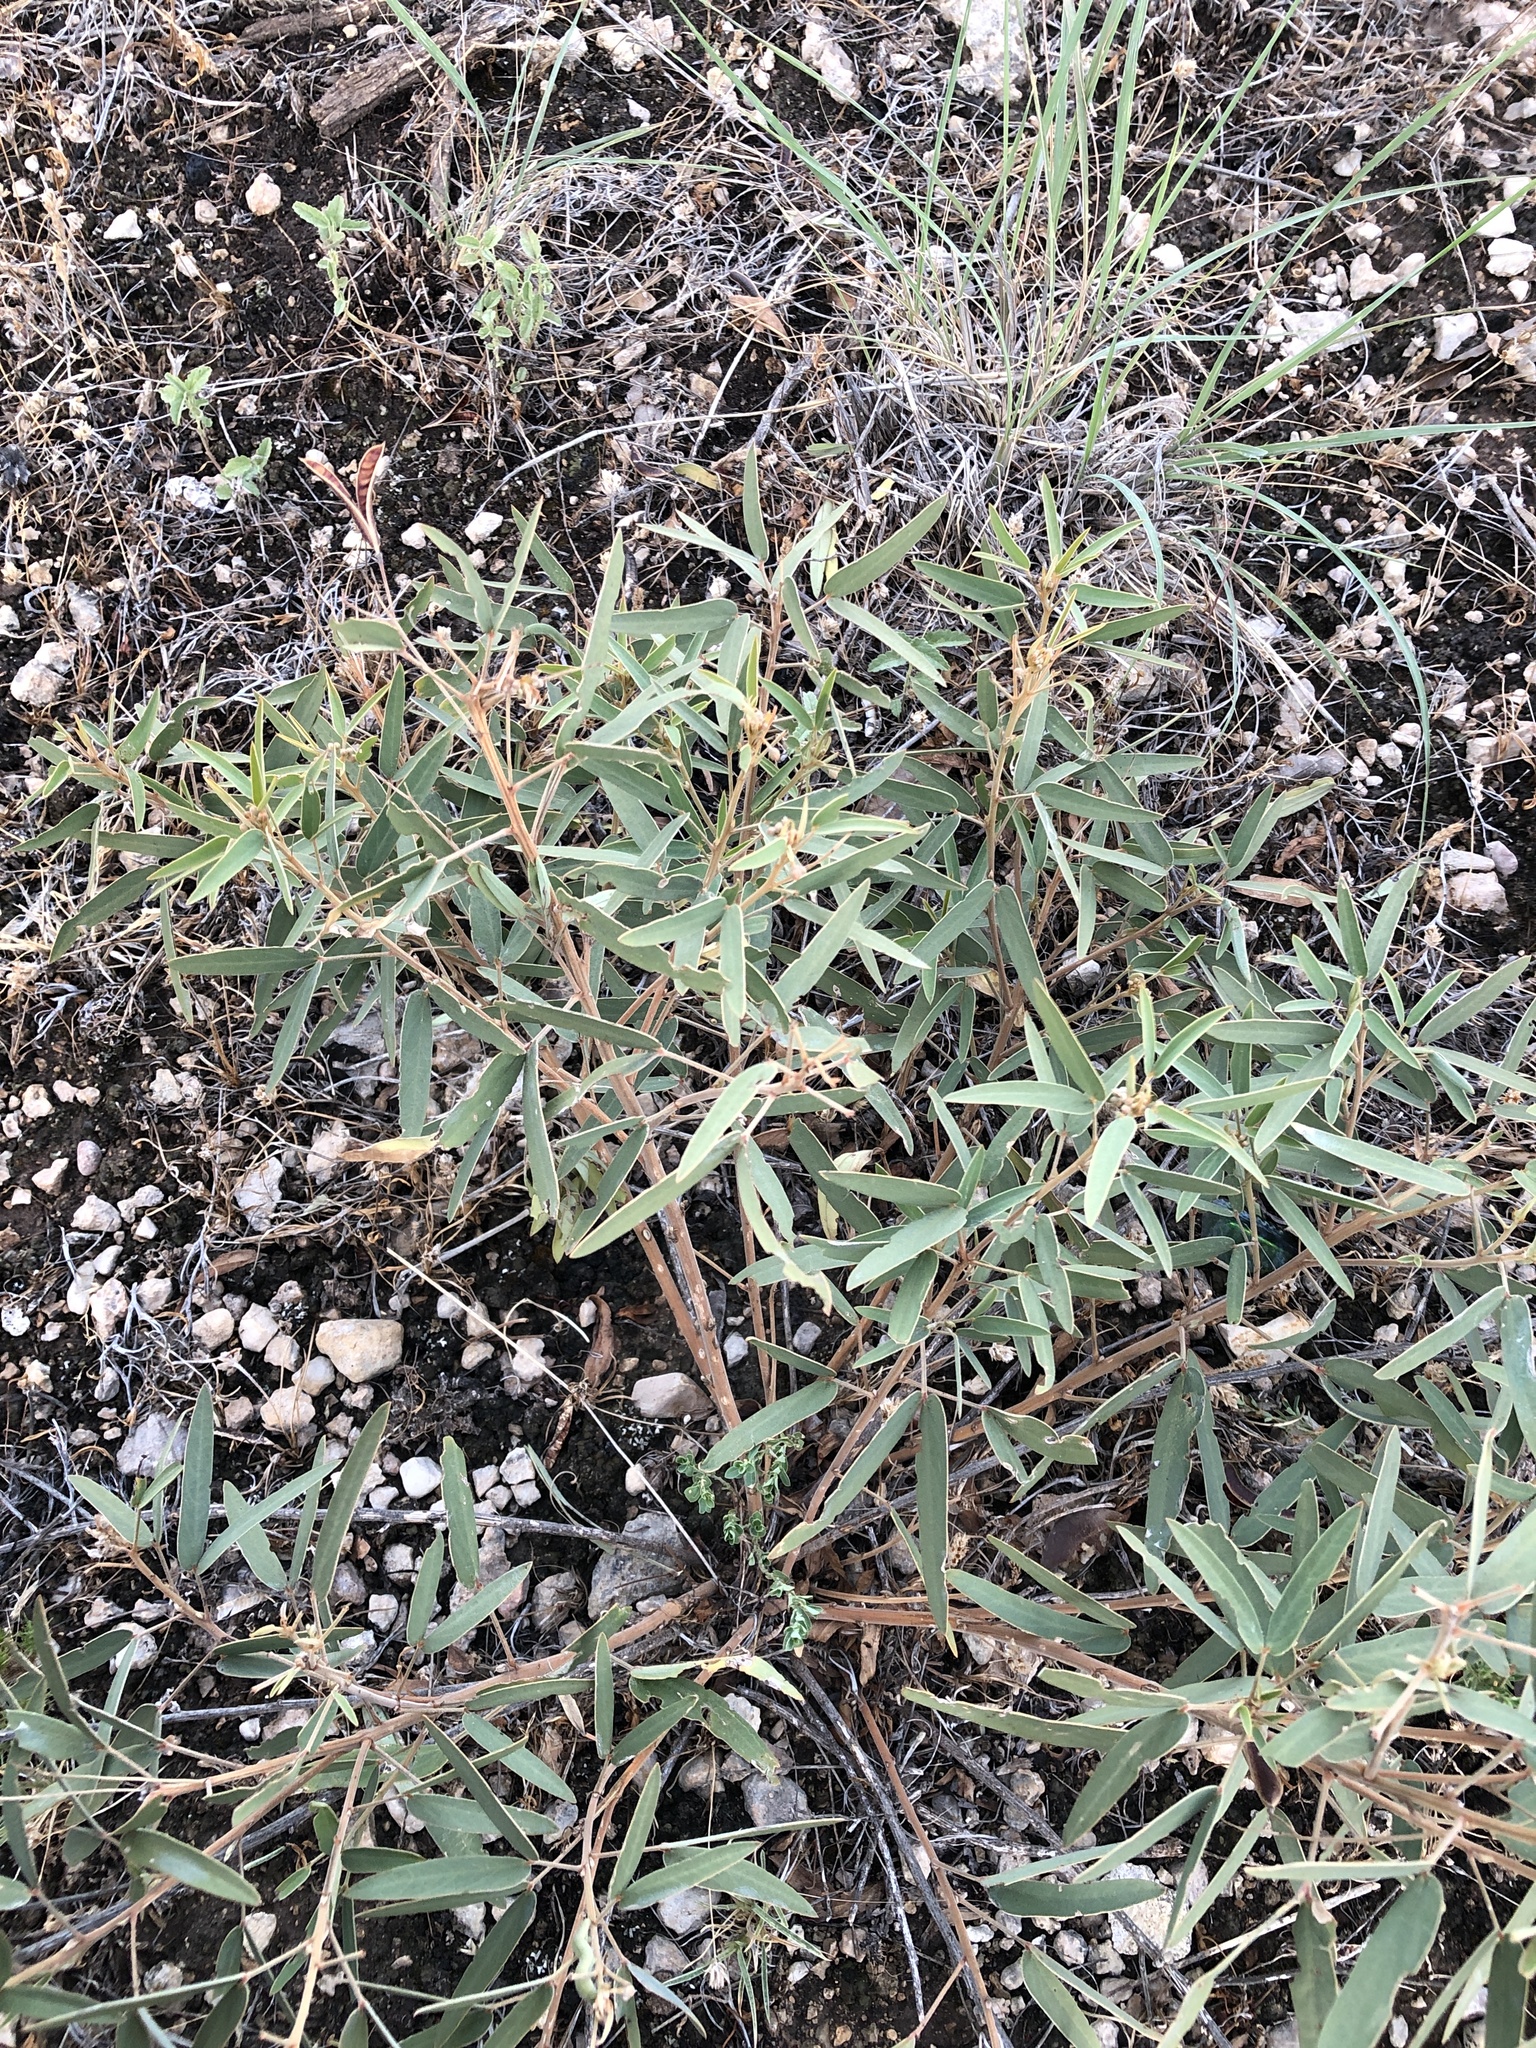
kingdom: Plantae
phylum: Tracheophyta
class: Magnoliopsida
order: Fabales
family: Fabaceae
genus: Senna
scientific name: Senna roemeriana
